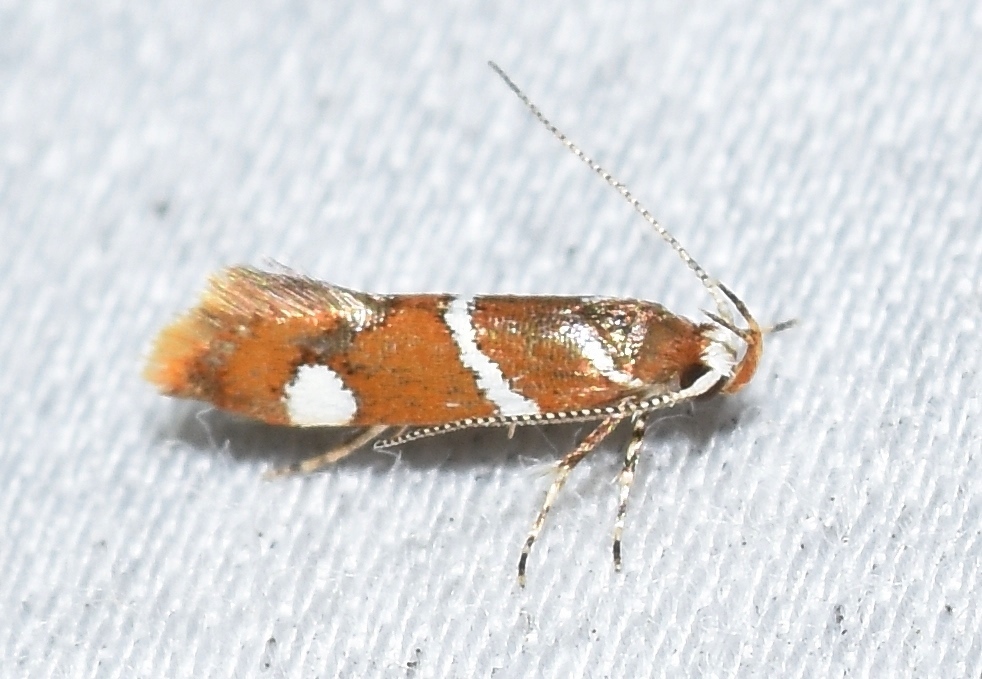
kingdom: Animalia
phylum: Arthropoda
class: Insecta
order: Lepidoptera
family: Oecophoridae
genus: Promalactis
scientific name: Promalactis suzukiella
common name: Moth
